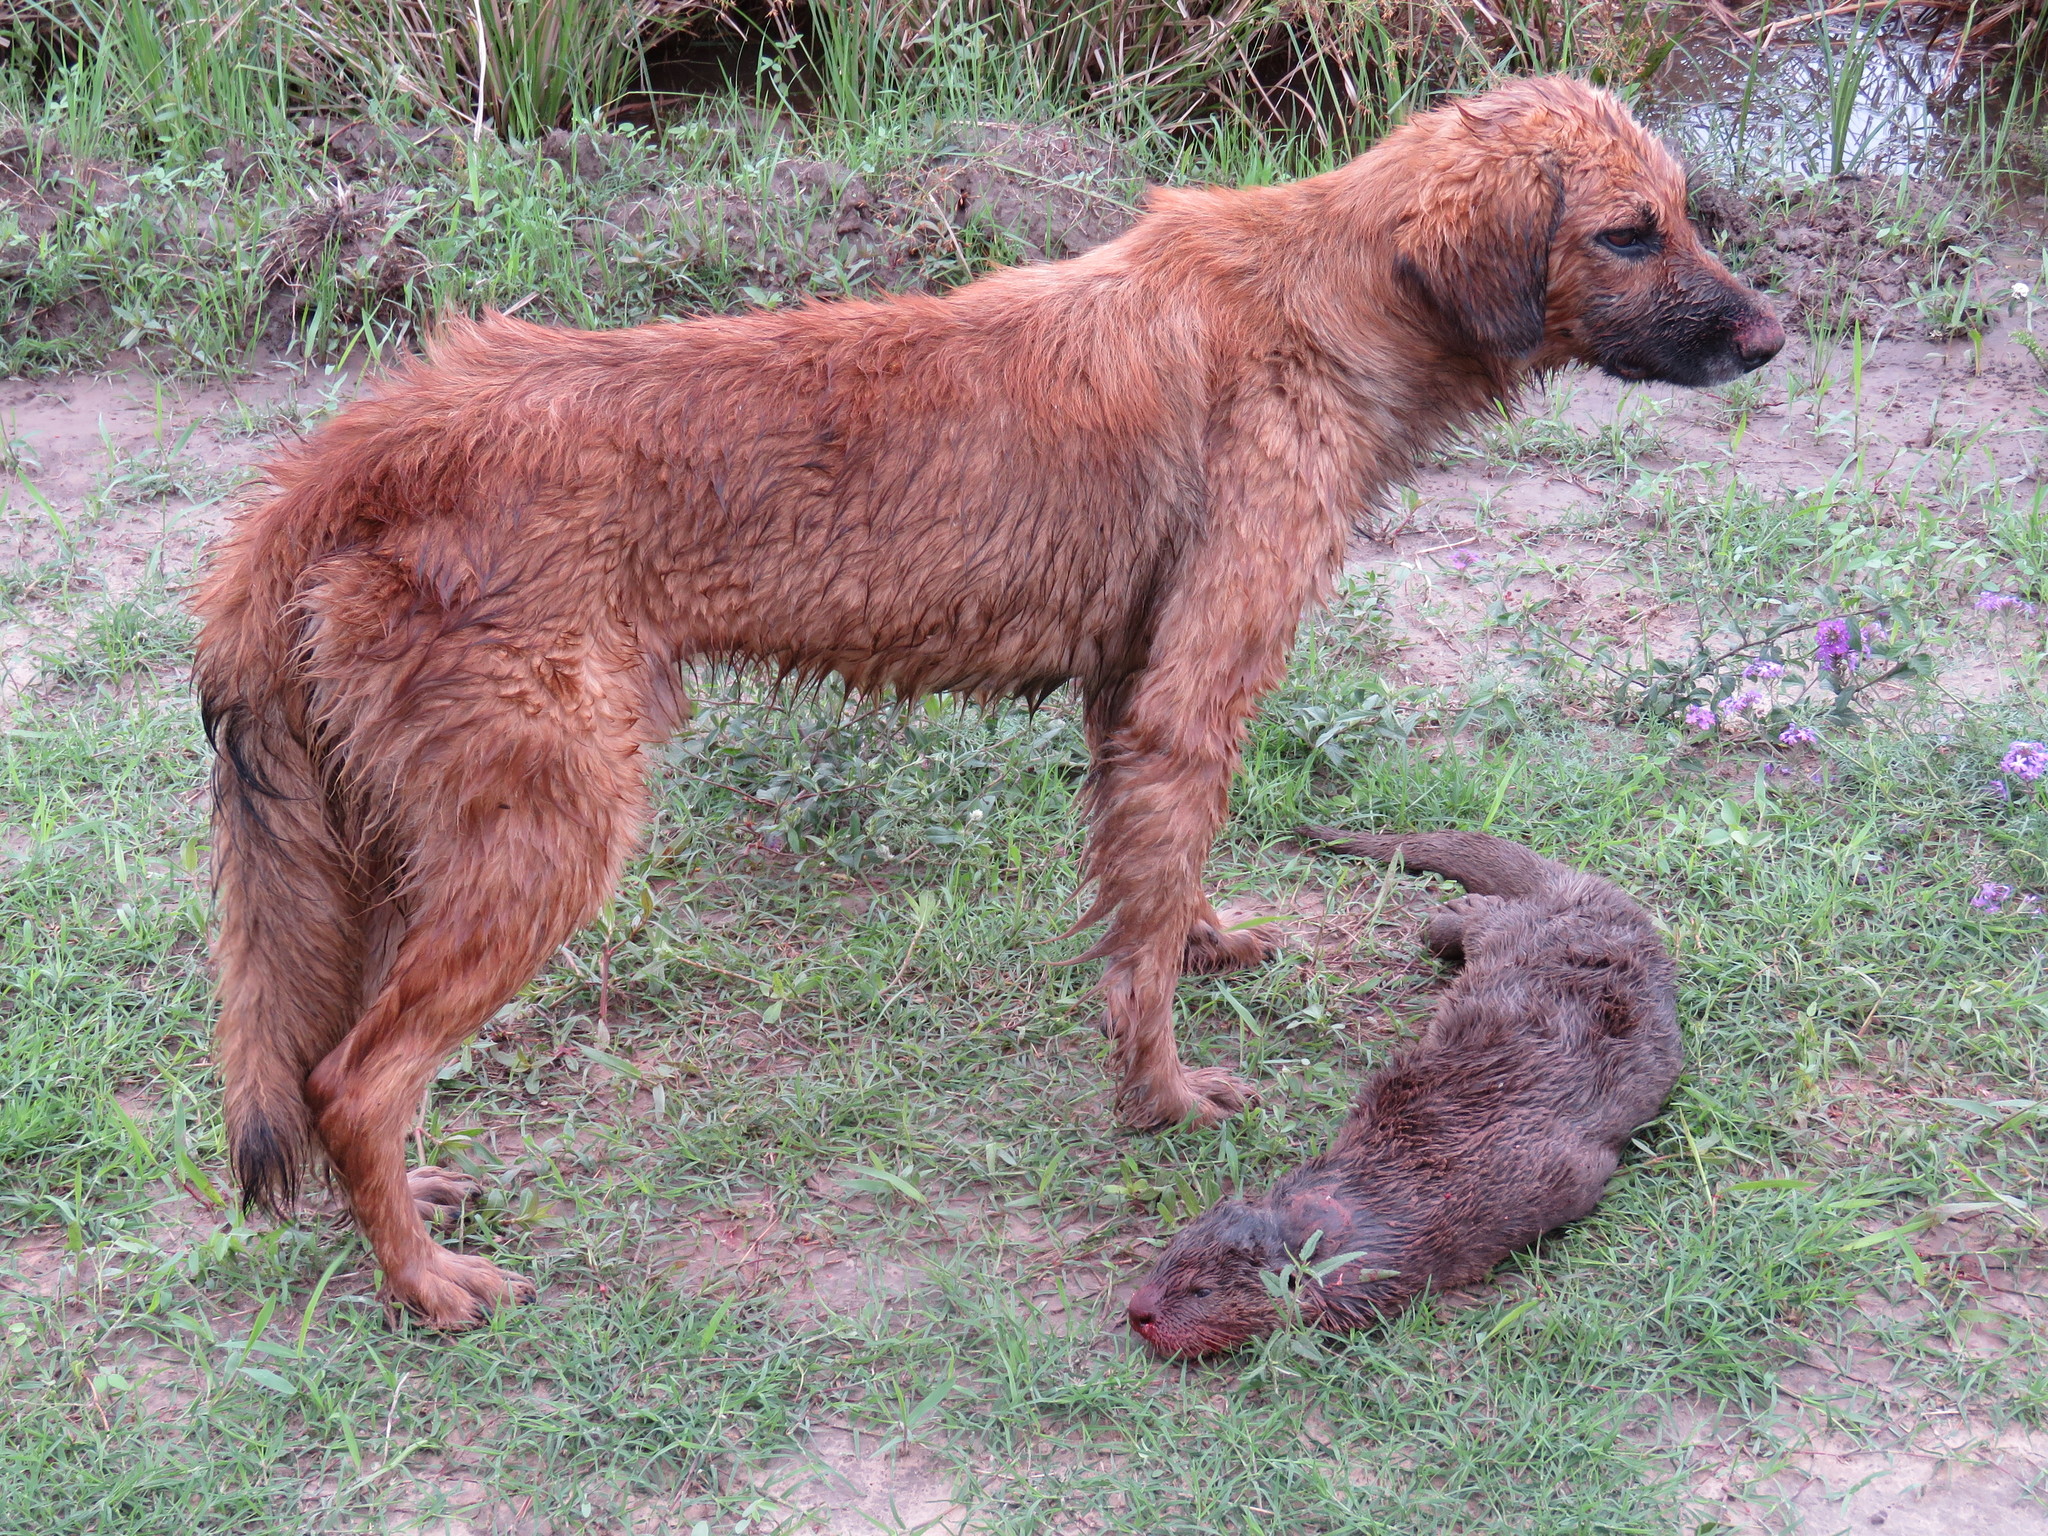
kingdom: Animalia
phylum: Chordata
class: Mammalia
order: Carnivora
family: Mustelidae
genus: Lontra
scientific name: Lontra longicaudis
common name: Neotropical otter
